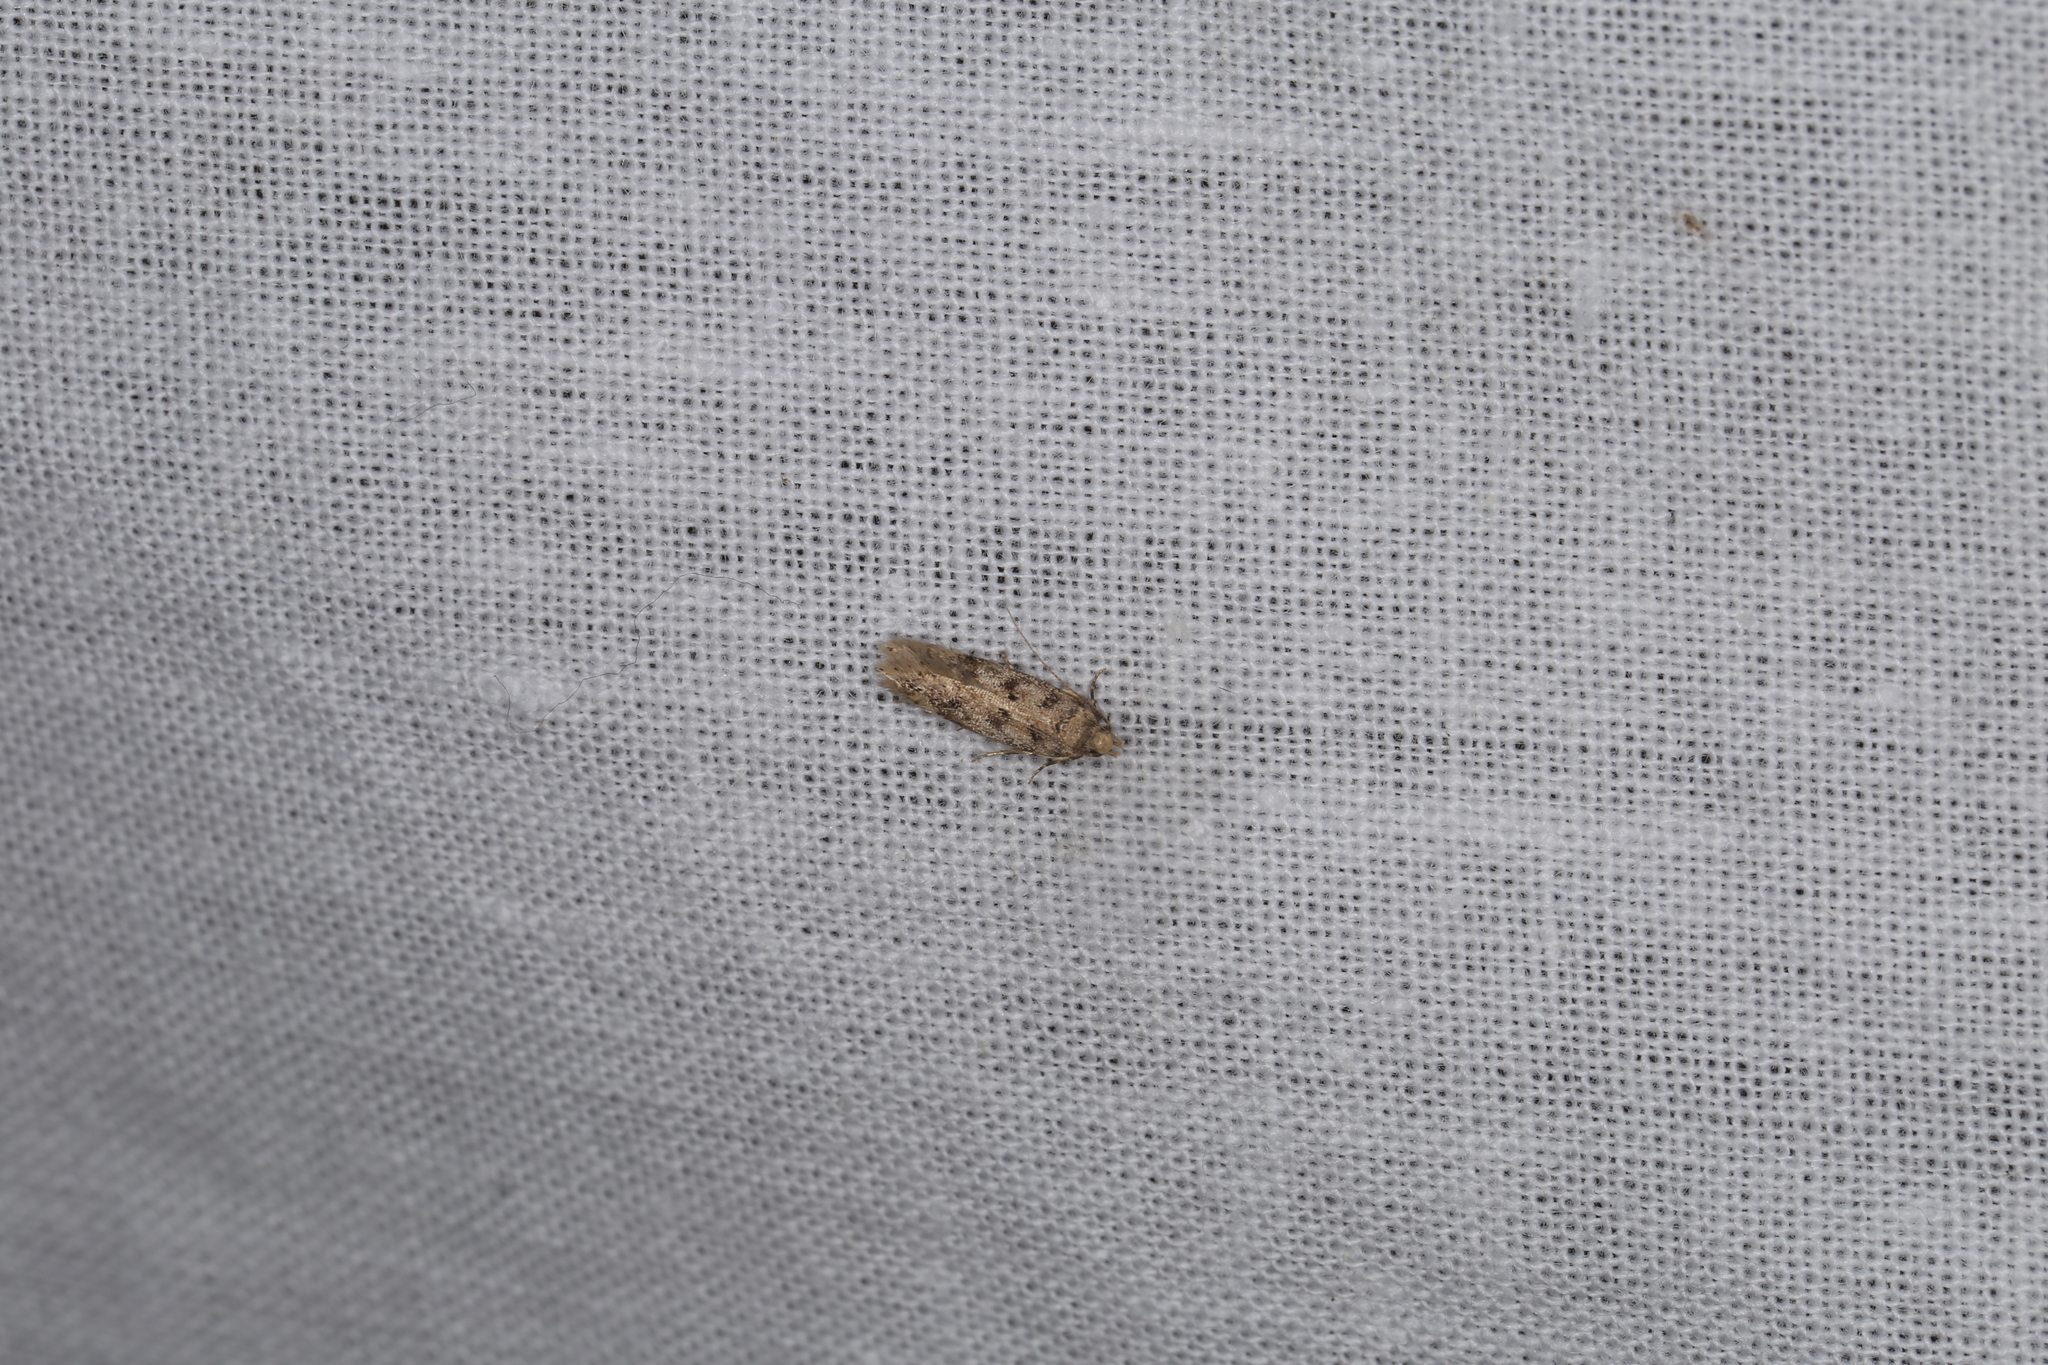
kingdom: Animalia
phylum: Arthropoda
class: Insecta
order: Lepidoptera
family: Gelechiidae
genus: Bryotropha
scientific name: Bryotropha domestica
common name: House groundling
